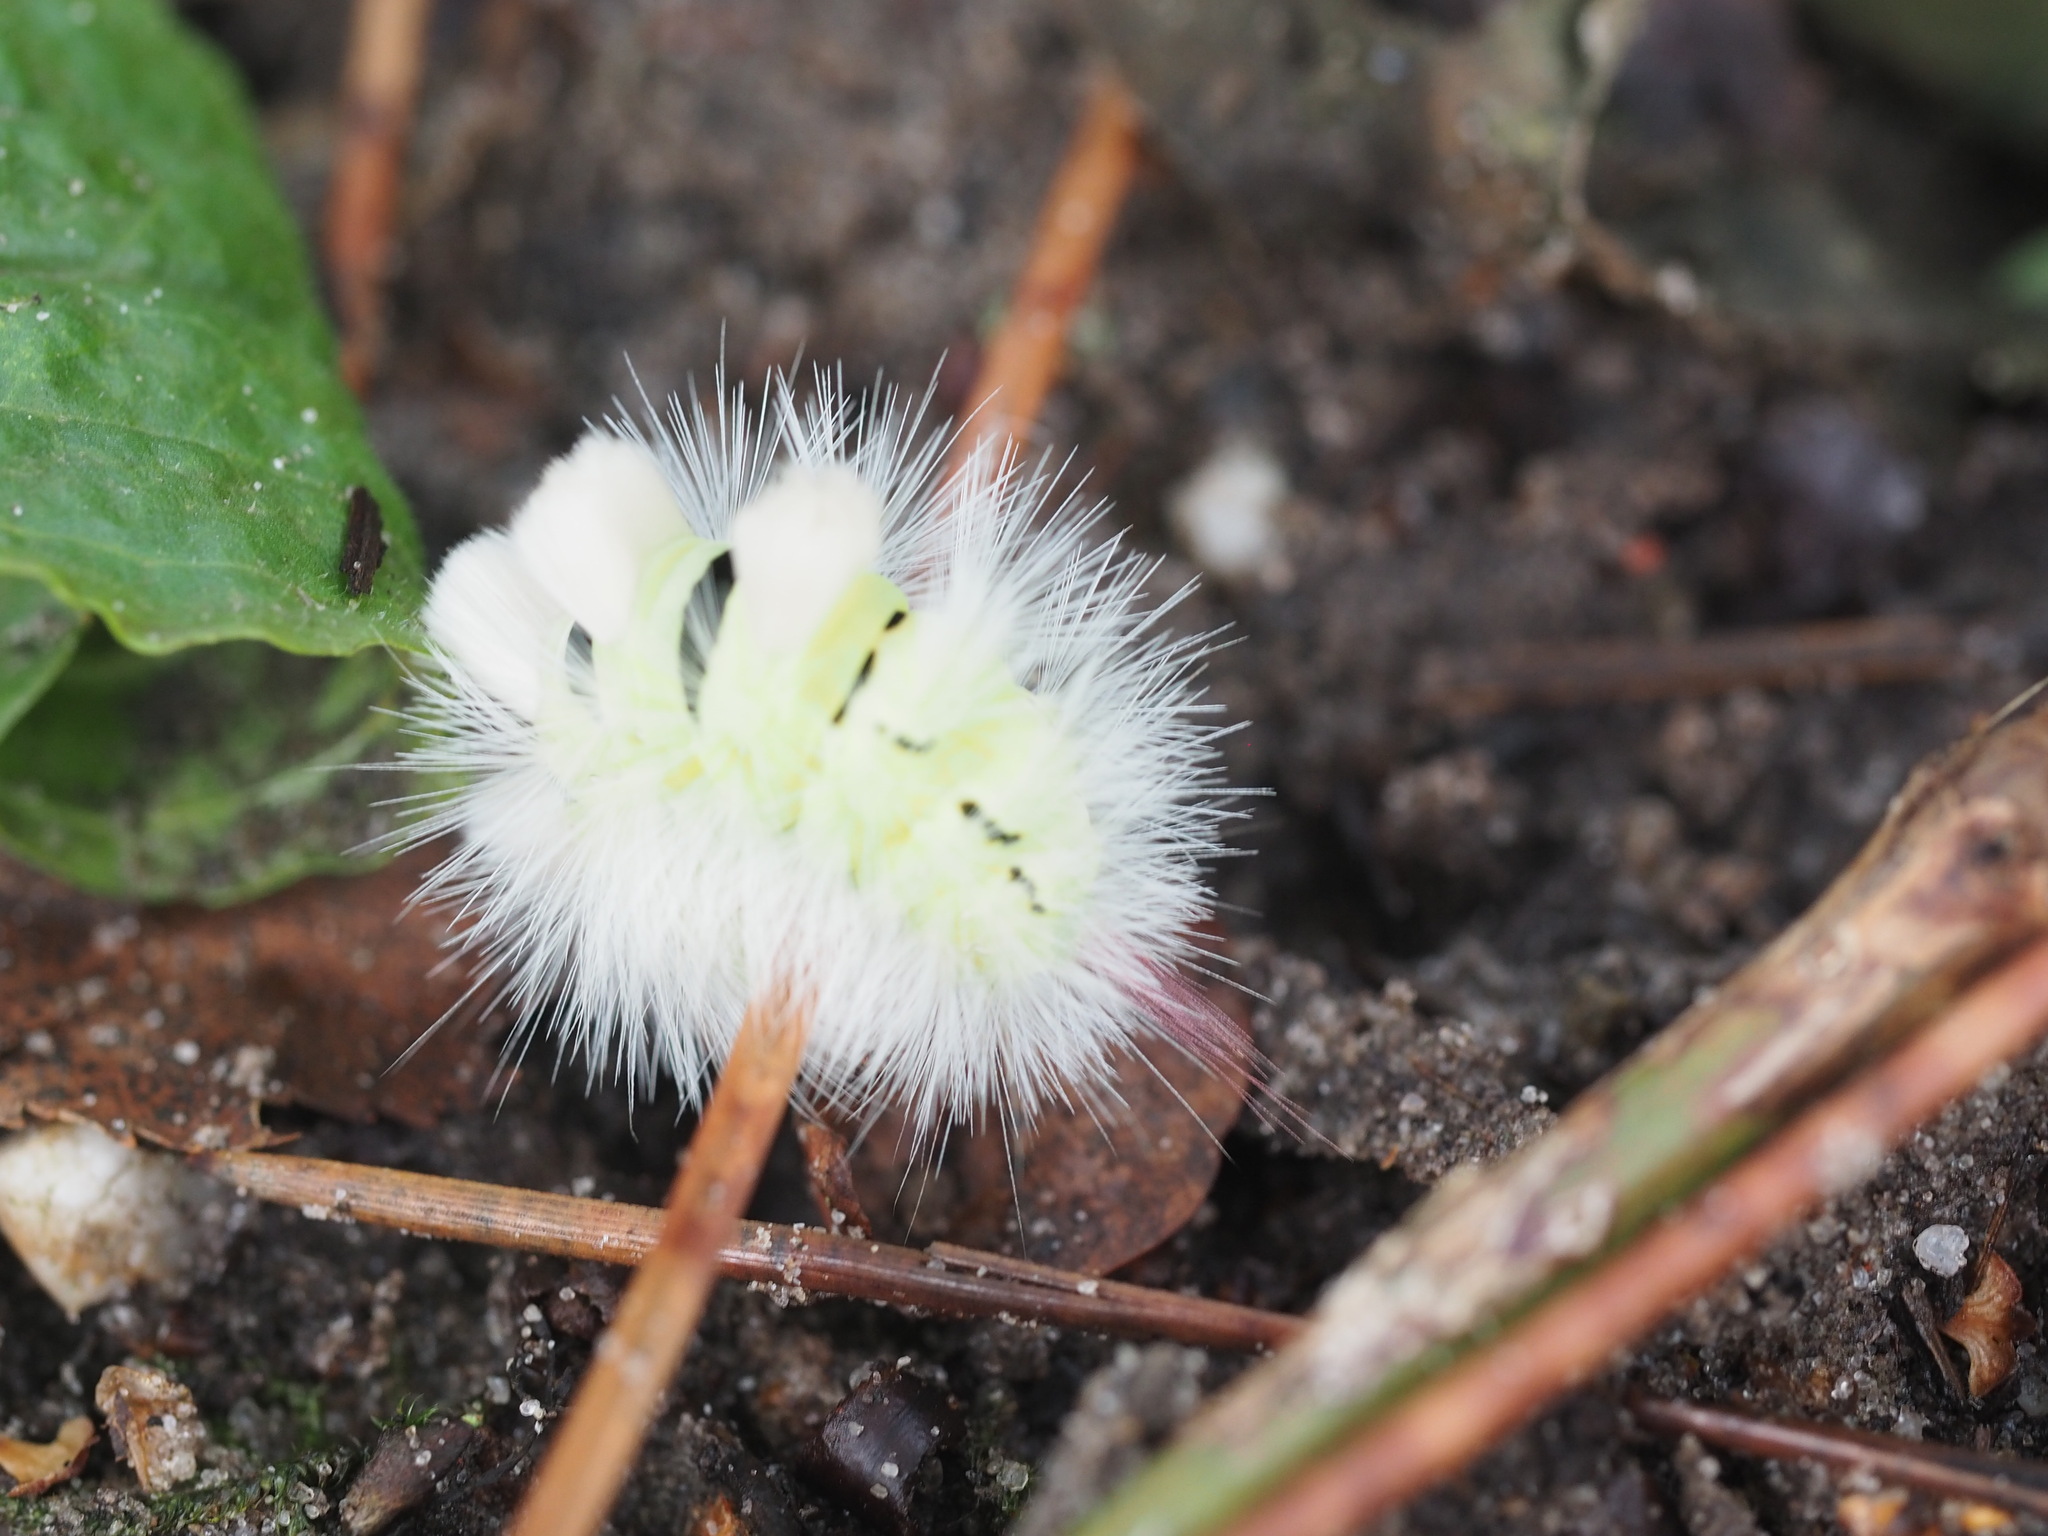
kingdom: Animalia
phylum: Arthropoda
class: Insecta
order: Lepidoptera
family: Erebidae
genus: Calliteara
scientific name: Calliteara pudibunda
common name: Pale tussock
